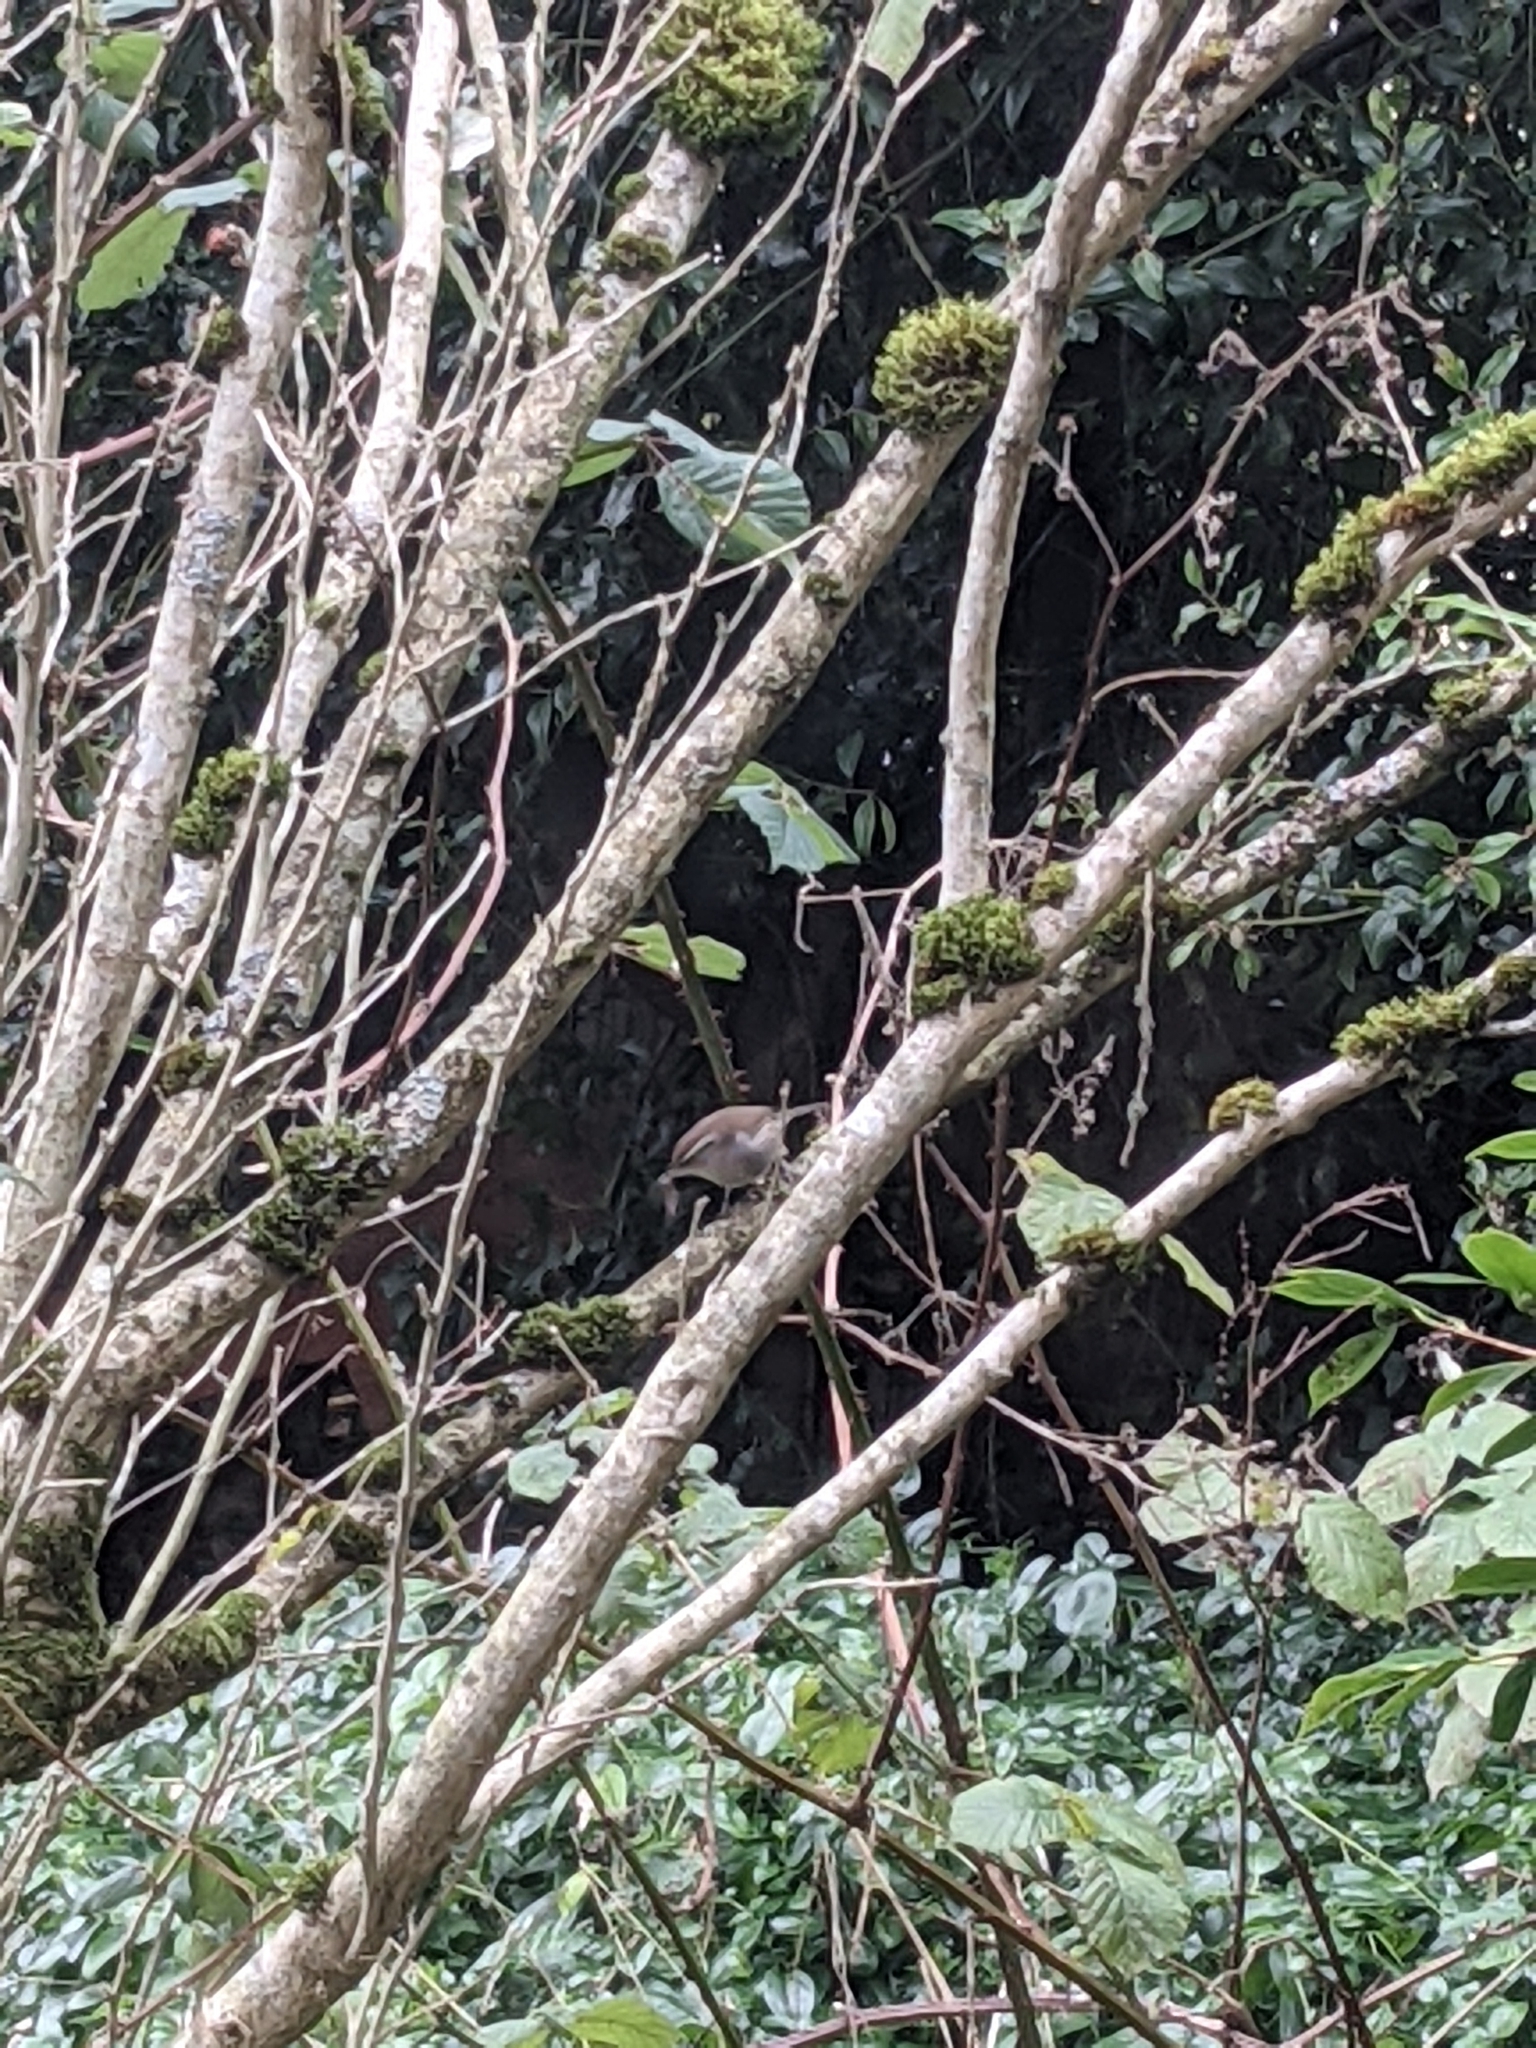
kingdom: Animalia
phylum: Chordata
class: Aves
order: Passeriformes
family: Troglodytidae
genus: Thryomanes
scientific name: Thryomanes bewickii
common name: Bewick's wren
